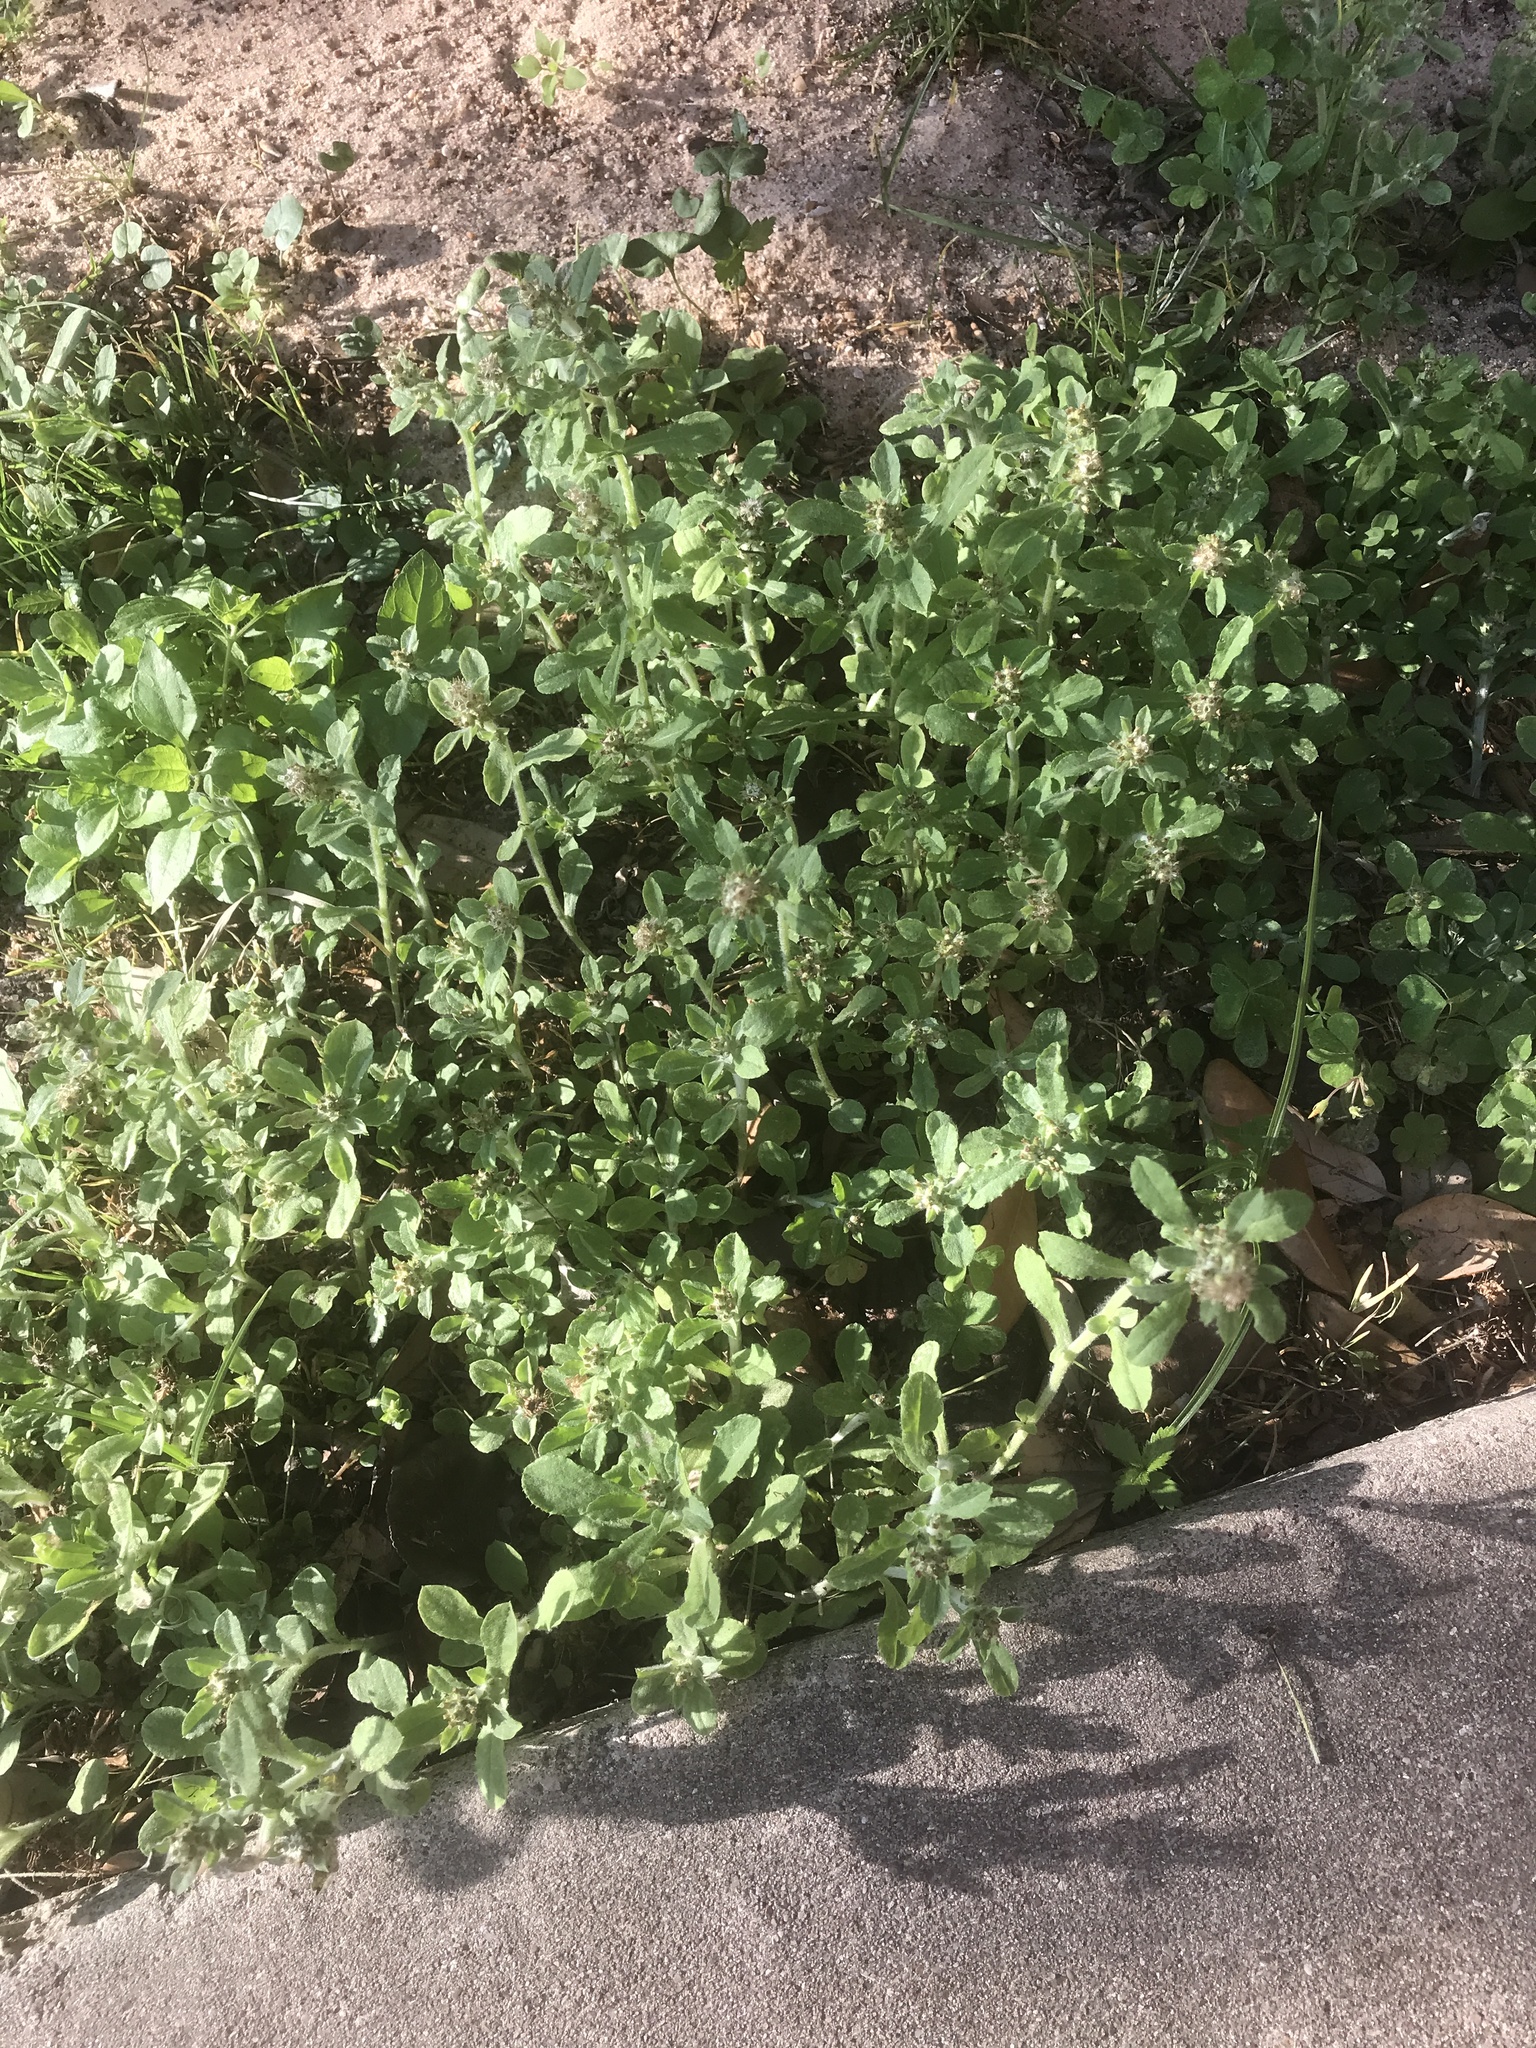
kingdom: Plantae
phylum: Tracheophyta
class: Magnoliopsida
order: Asterales
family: Asteraceae
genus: Gamochaeta
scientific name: Gamochaeta pensylvanica
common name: Pennsylvania everlasting
